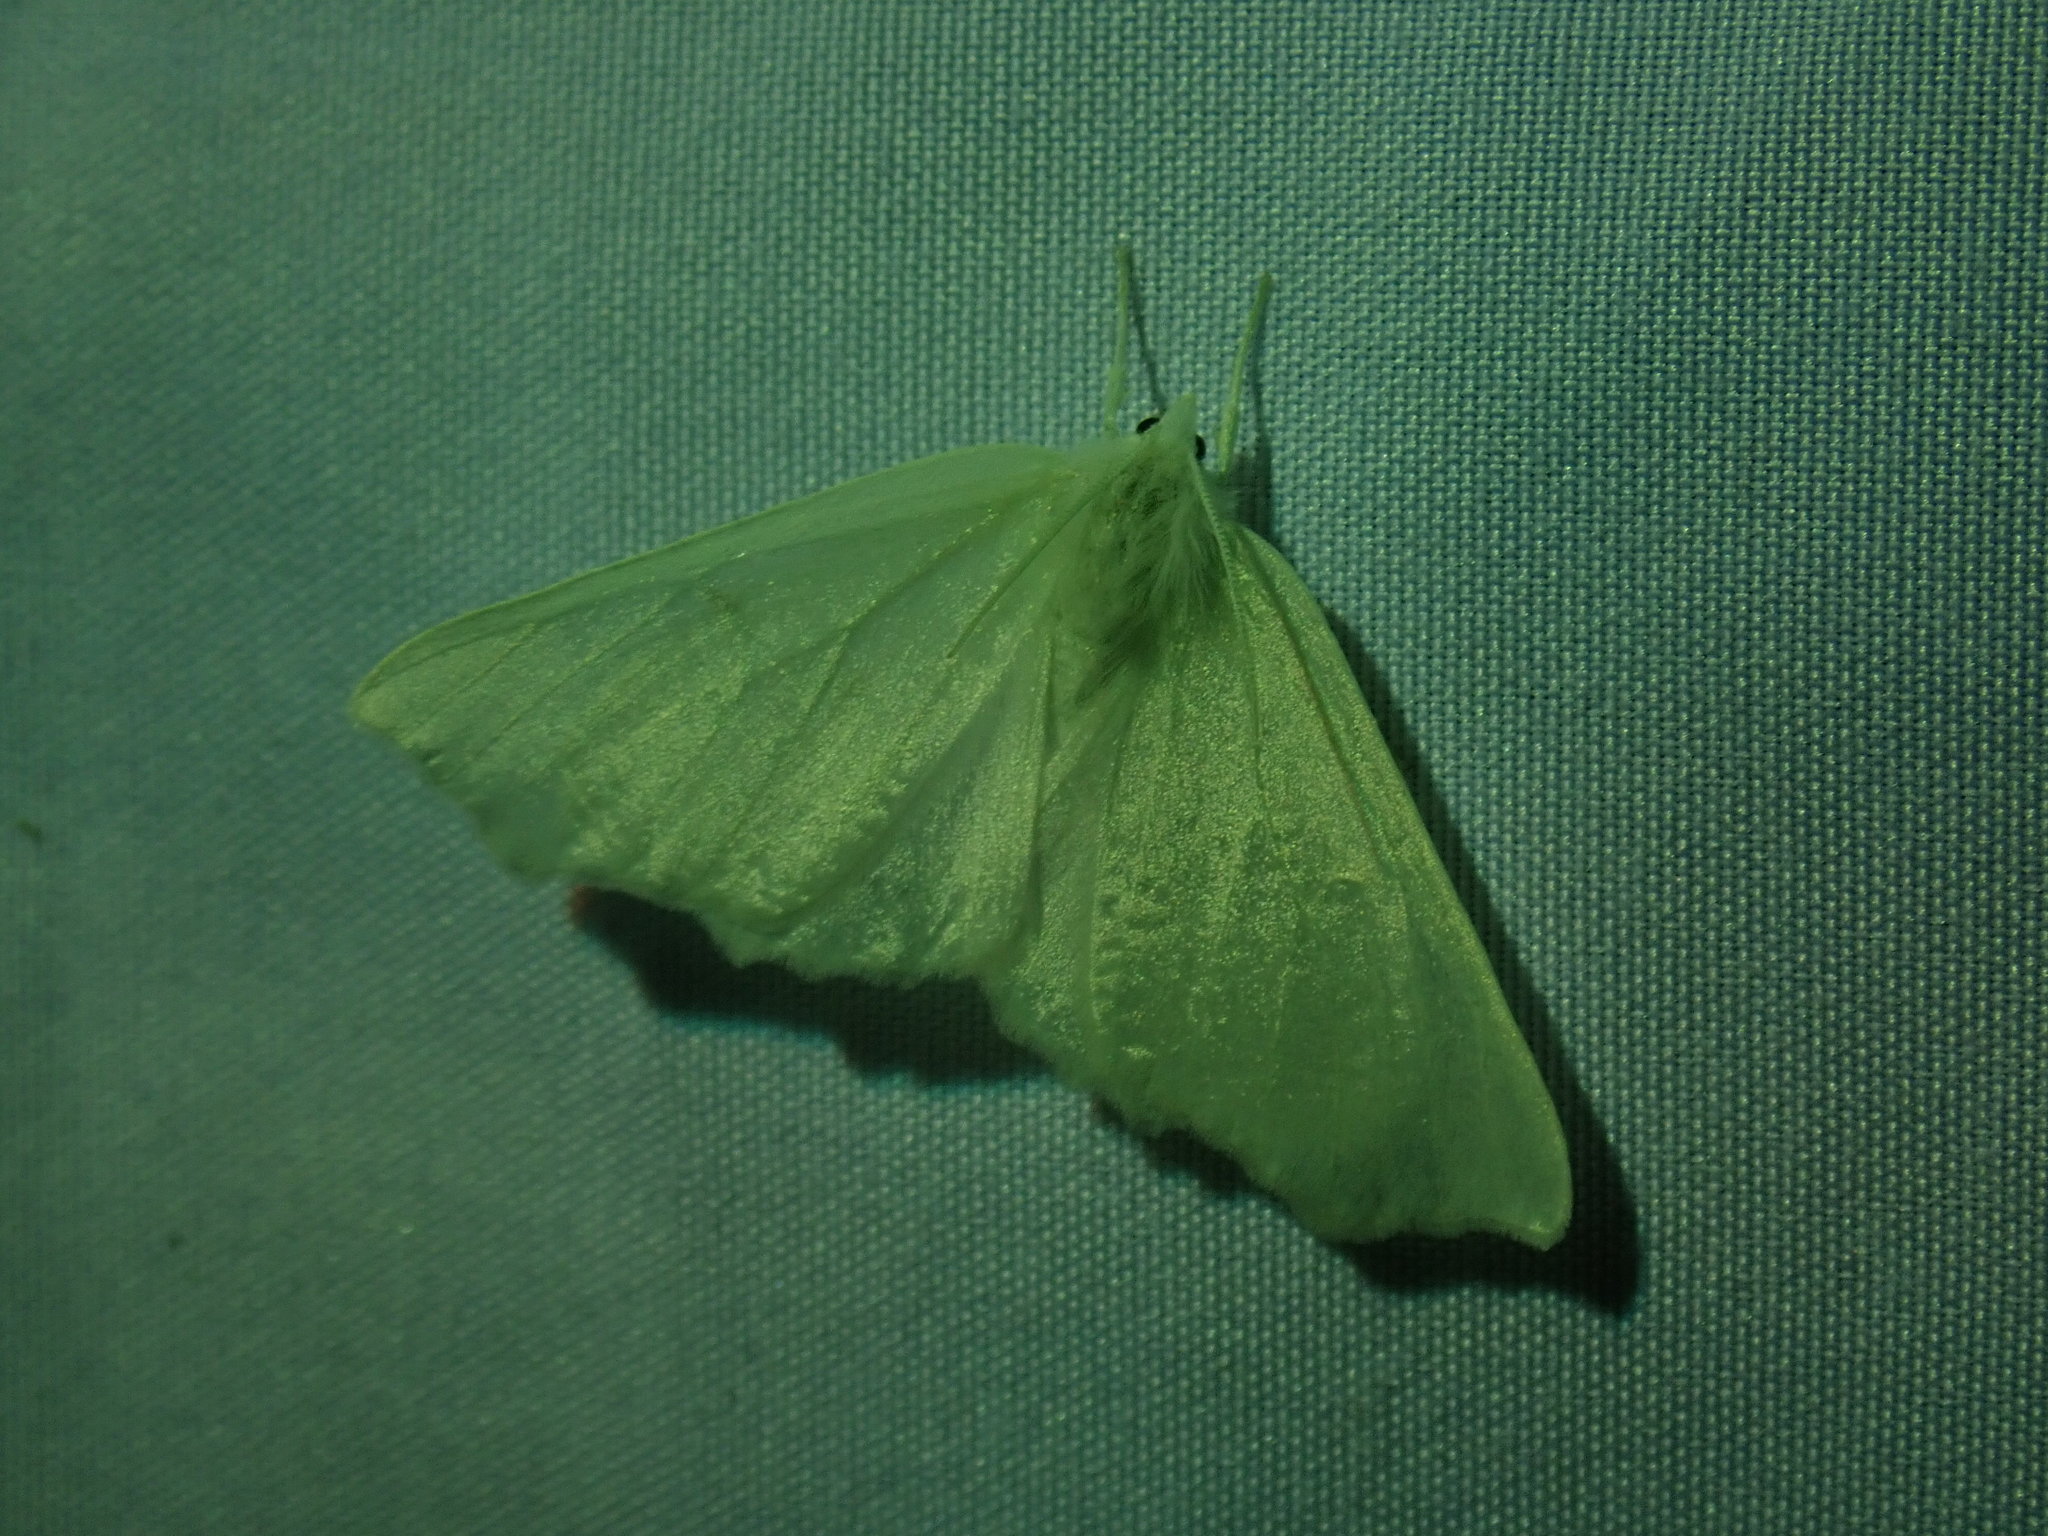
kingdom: Animalia
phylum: Arthropoda
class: Insecta
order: Lepidoptera
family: Geometridae
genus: Ennomos
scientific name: Ennomos subsignaria
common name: Elm spanworm
